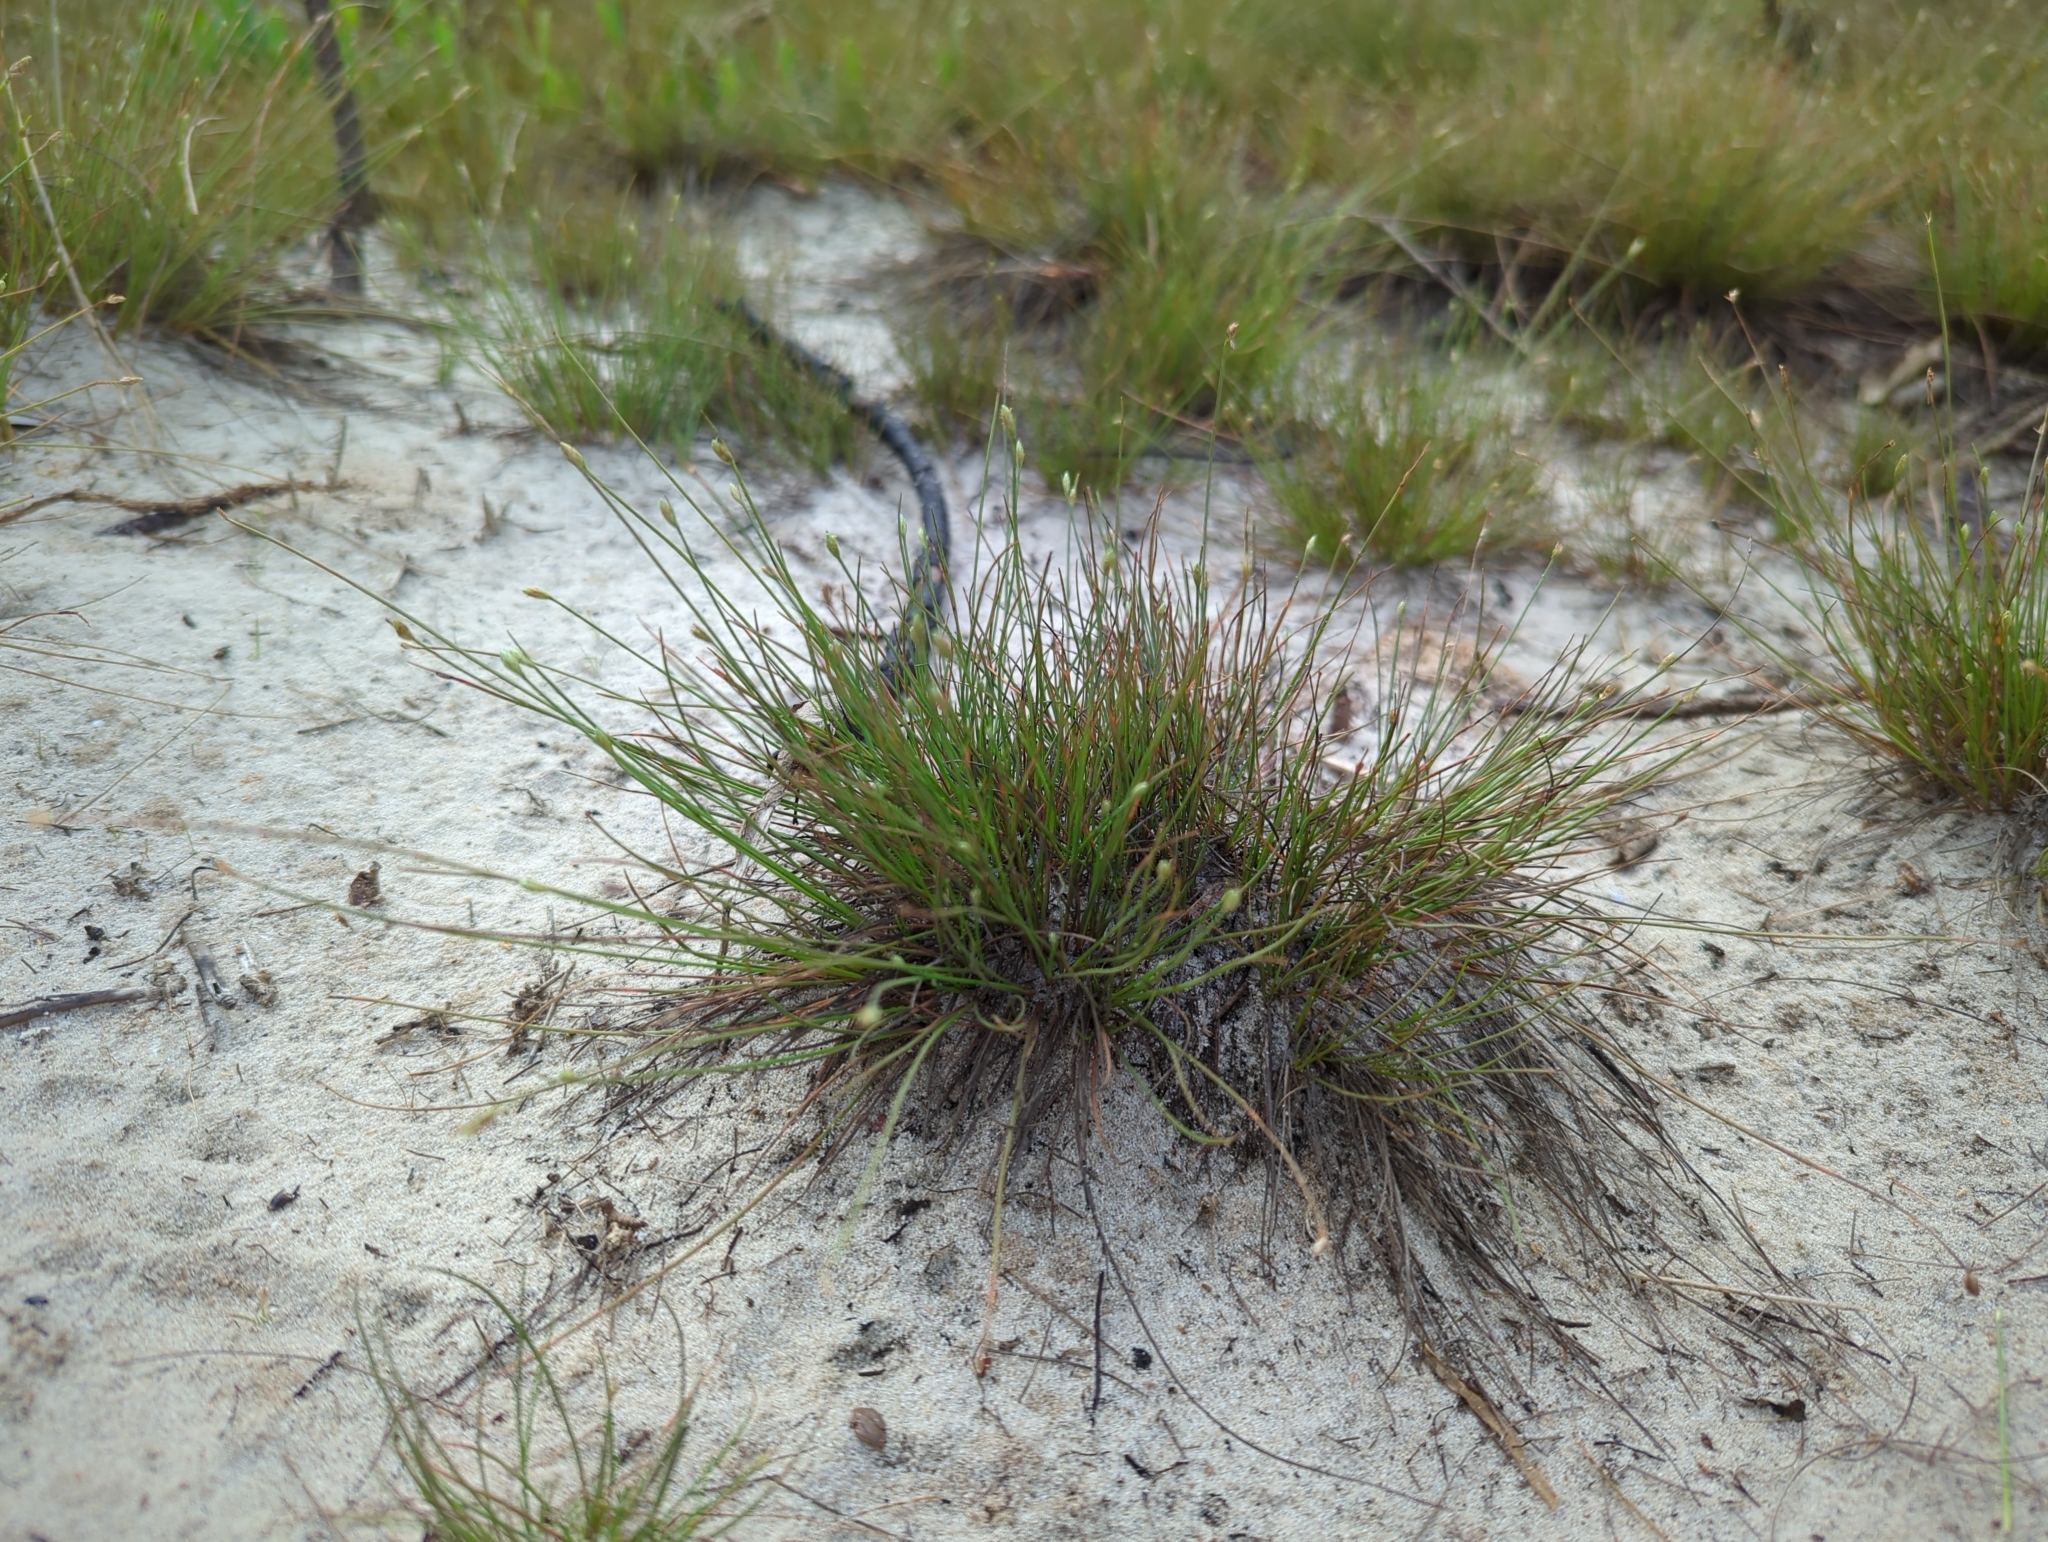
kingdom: Plantae
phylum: Tracheophyta
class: Liliopsida
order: Poales
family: Cyperaceae
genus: Fimbristylis
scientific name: Fimbristylis polytrichoides
